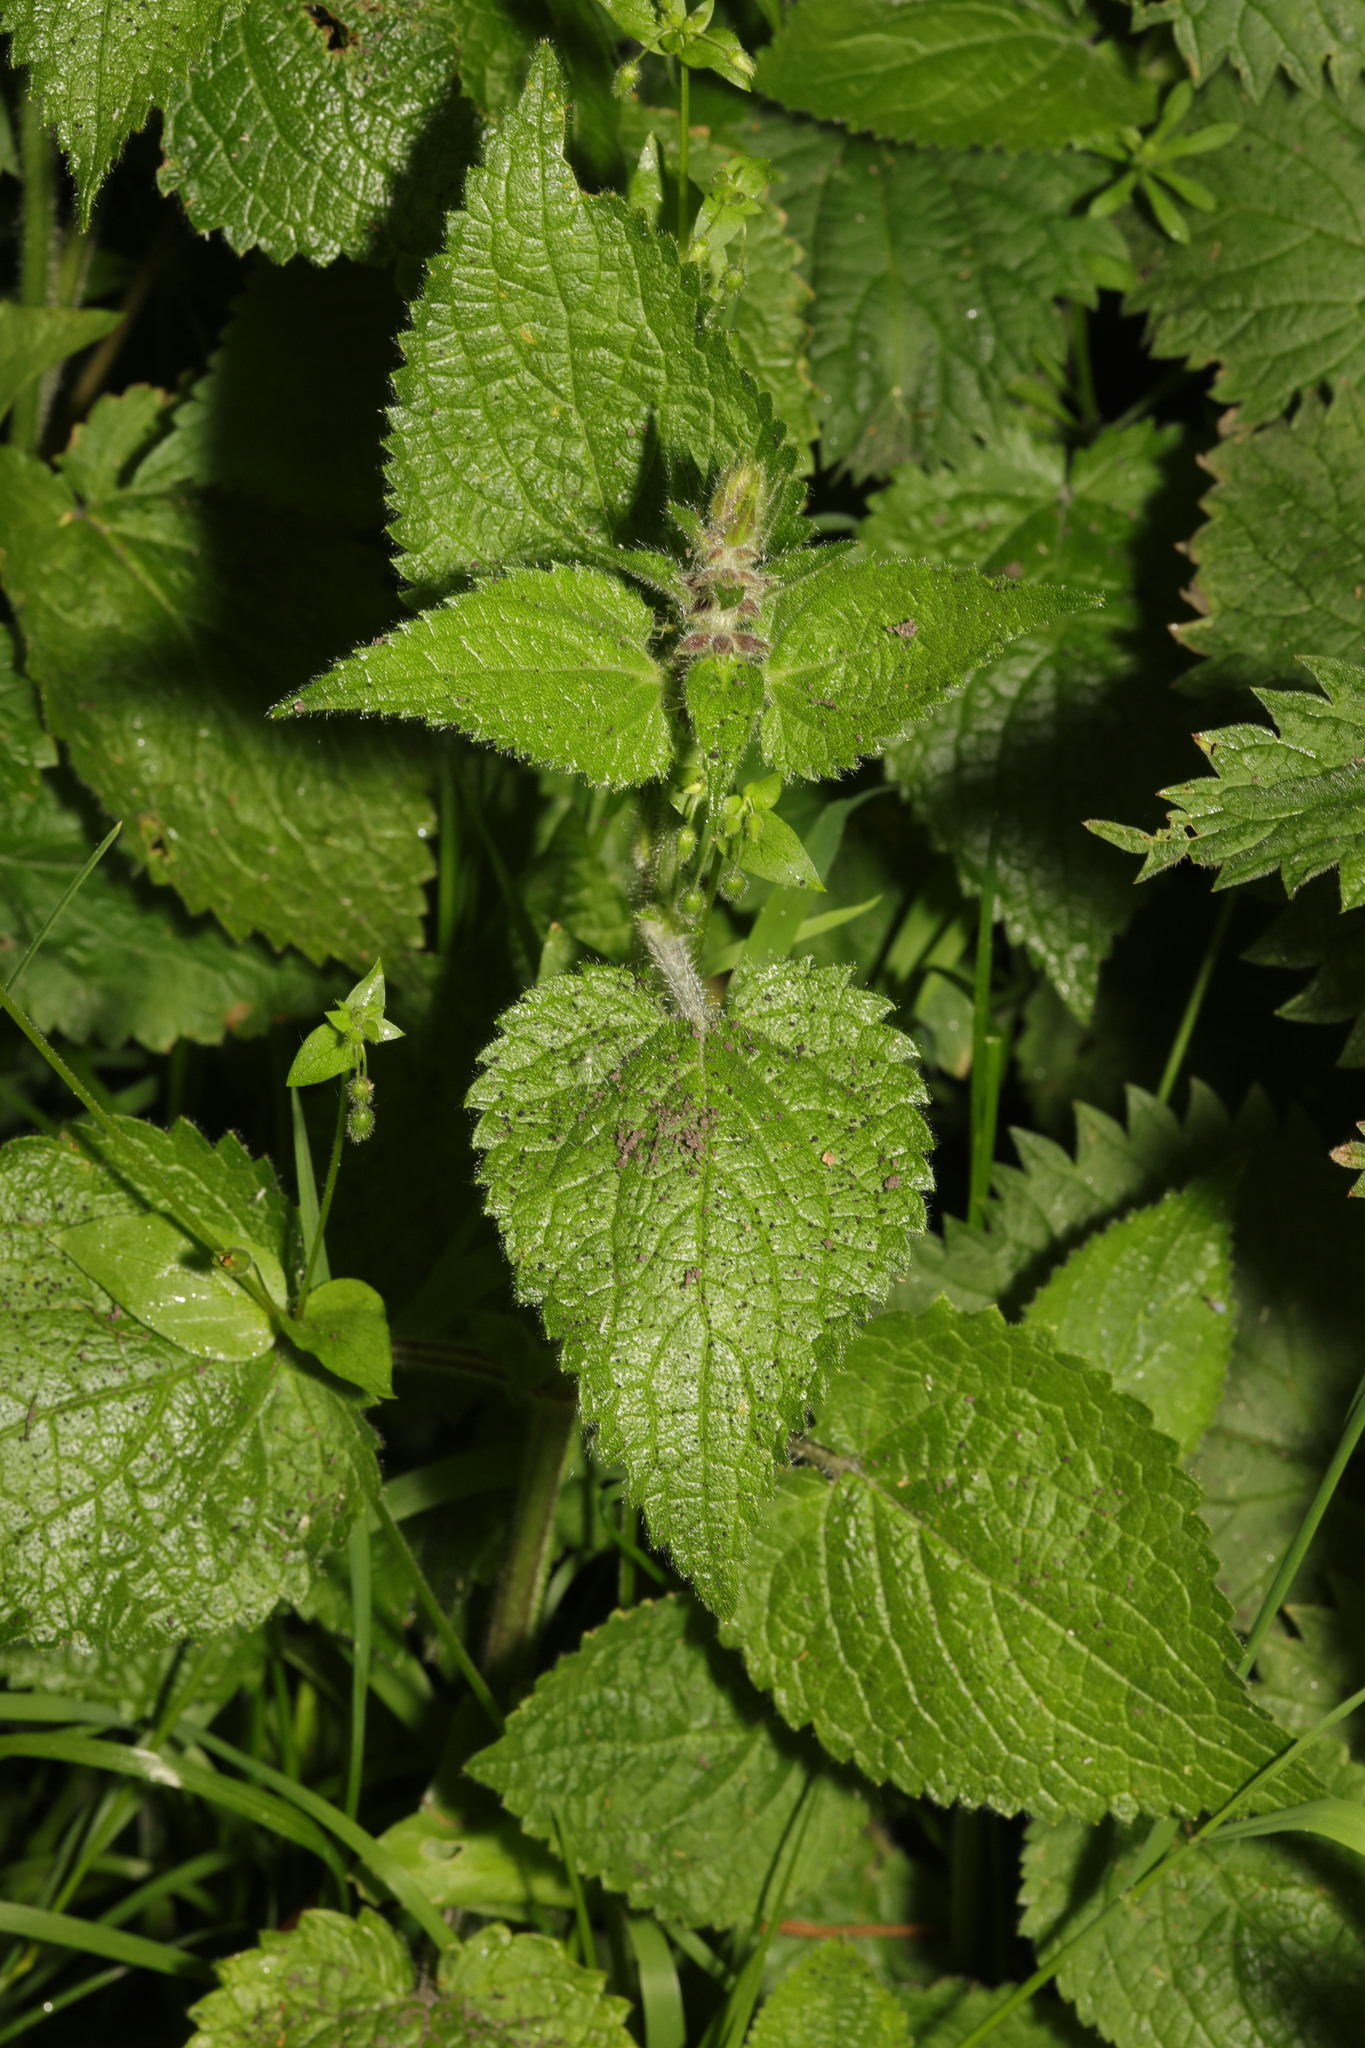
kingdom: Plantae
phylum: Tracheophyta
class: Magnoliopsida
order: Lamiales
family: Lamiaceae
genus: Stachys
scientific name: Stachys sylvatica
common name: Hedge woundwort
